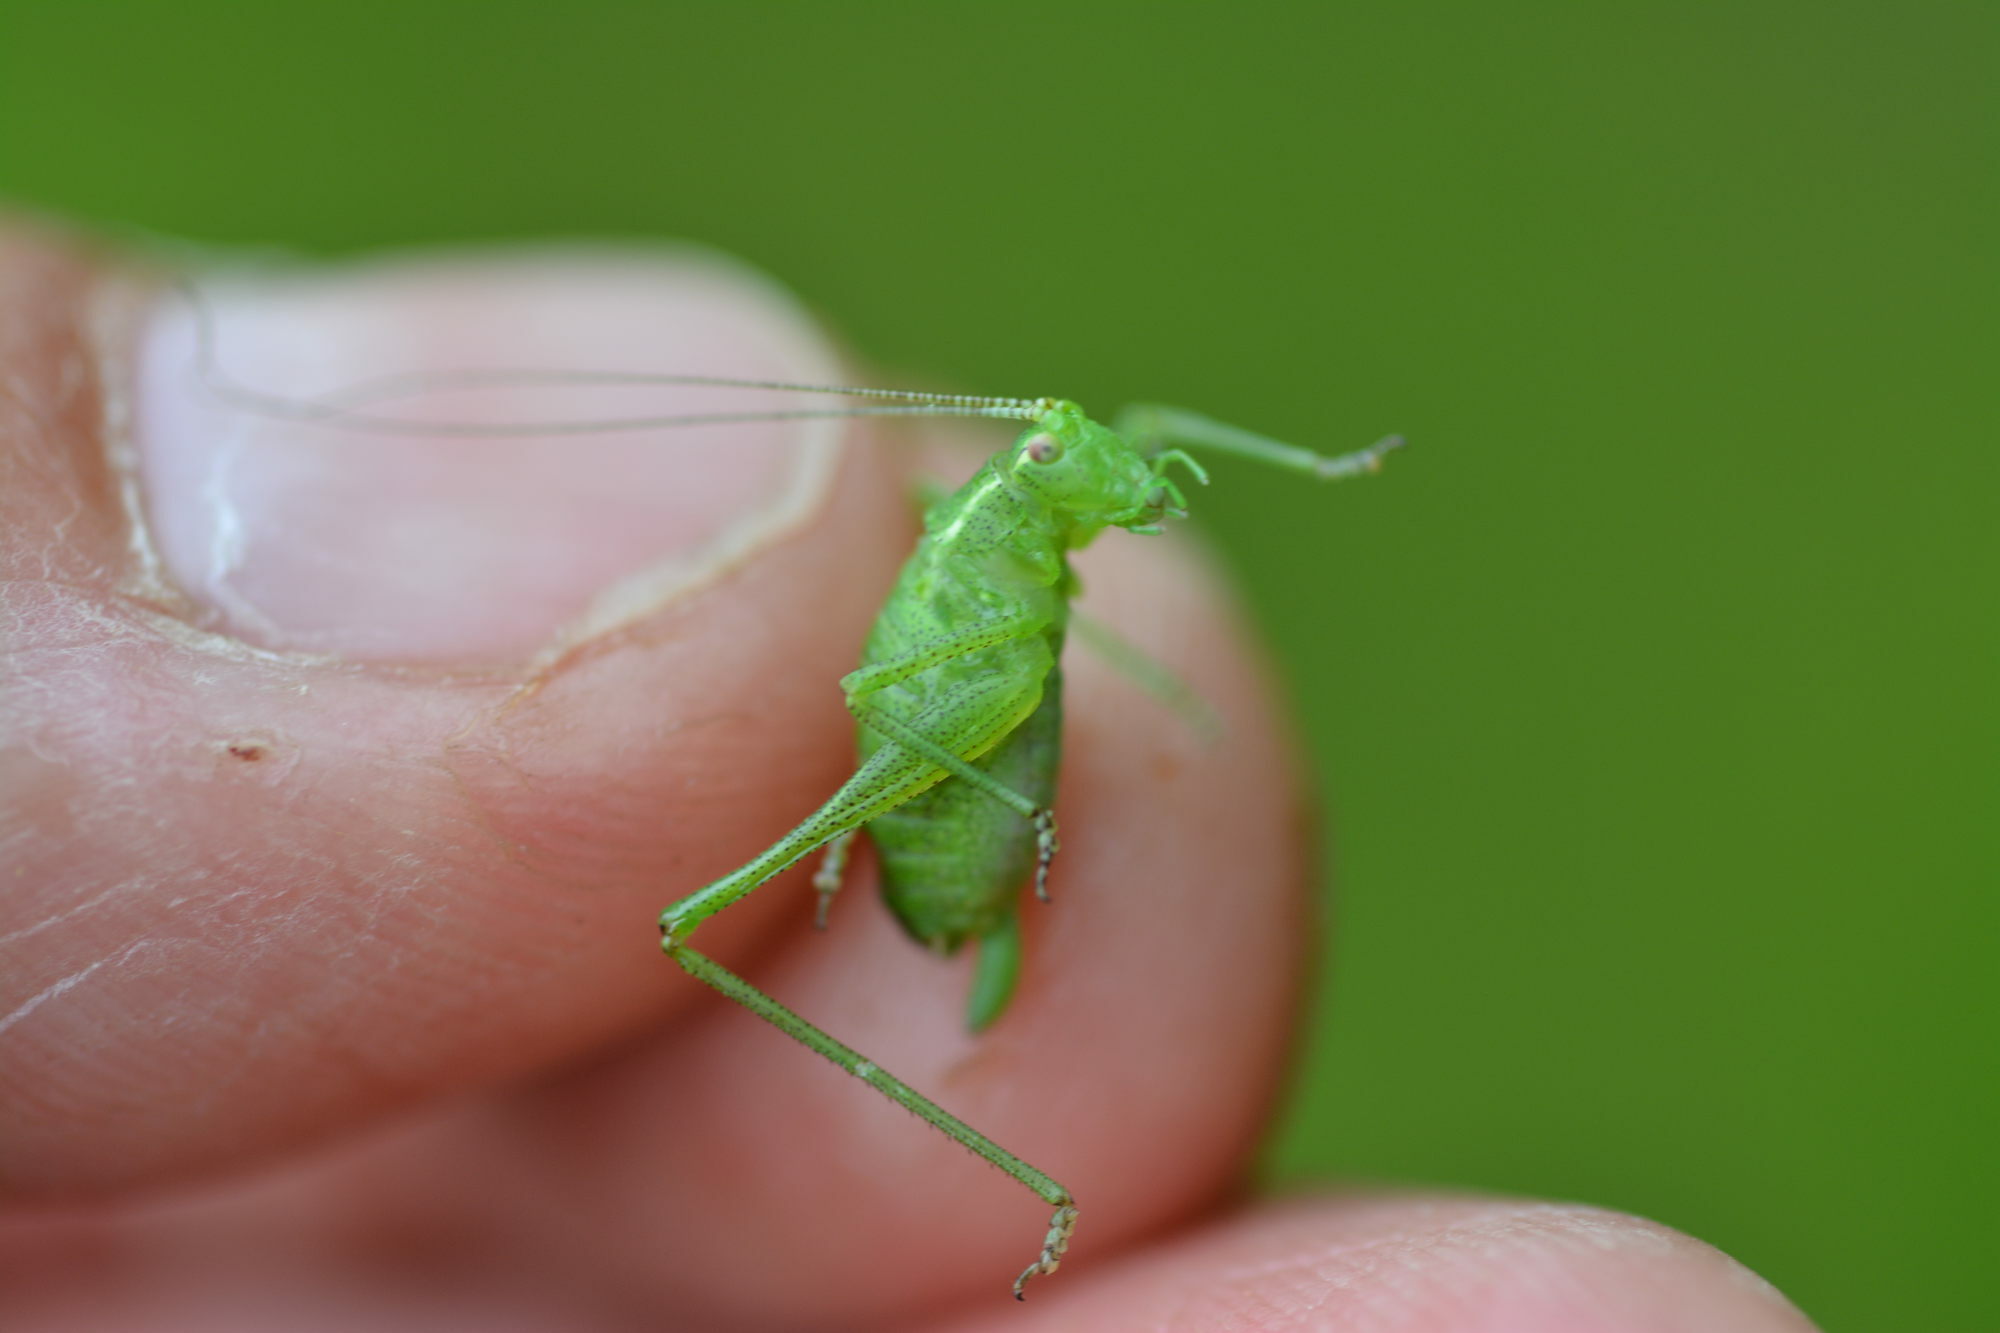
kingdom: Animalia
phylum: Arthropoda
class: Insecta
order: Orthoptera
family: Tettigoniidae
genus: Leptophyes
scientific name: Leptophyes punctatissima
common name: Speckled bush-cricket
